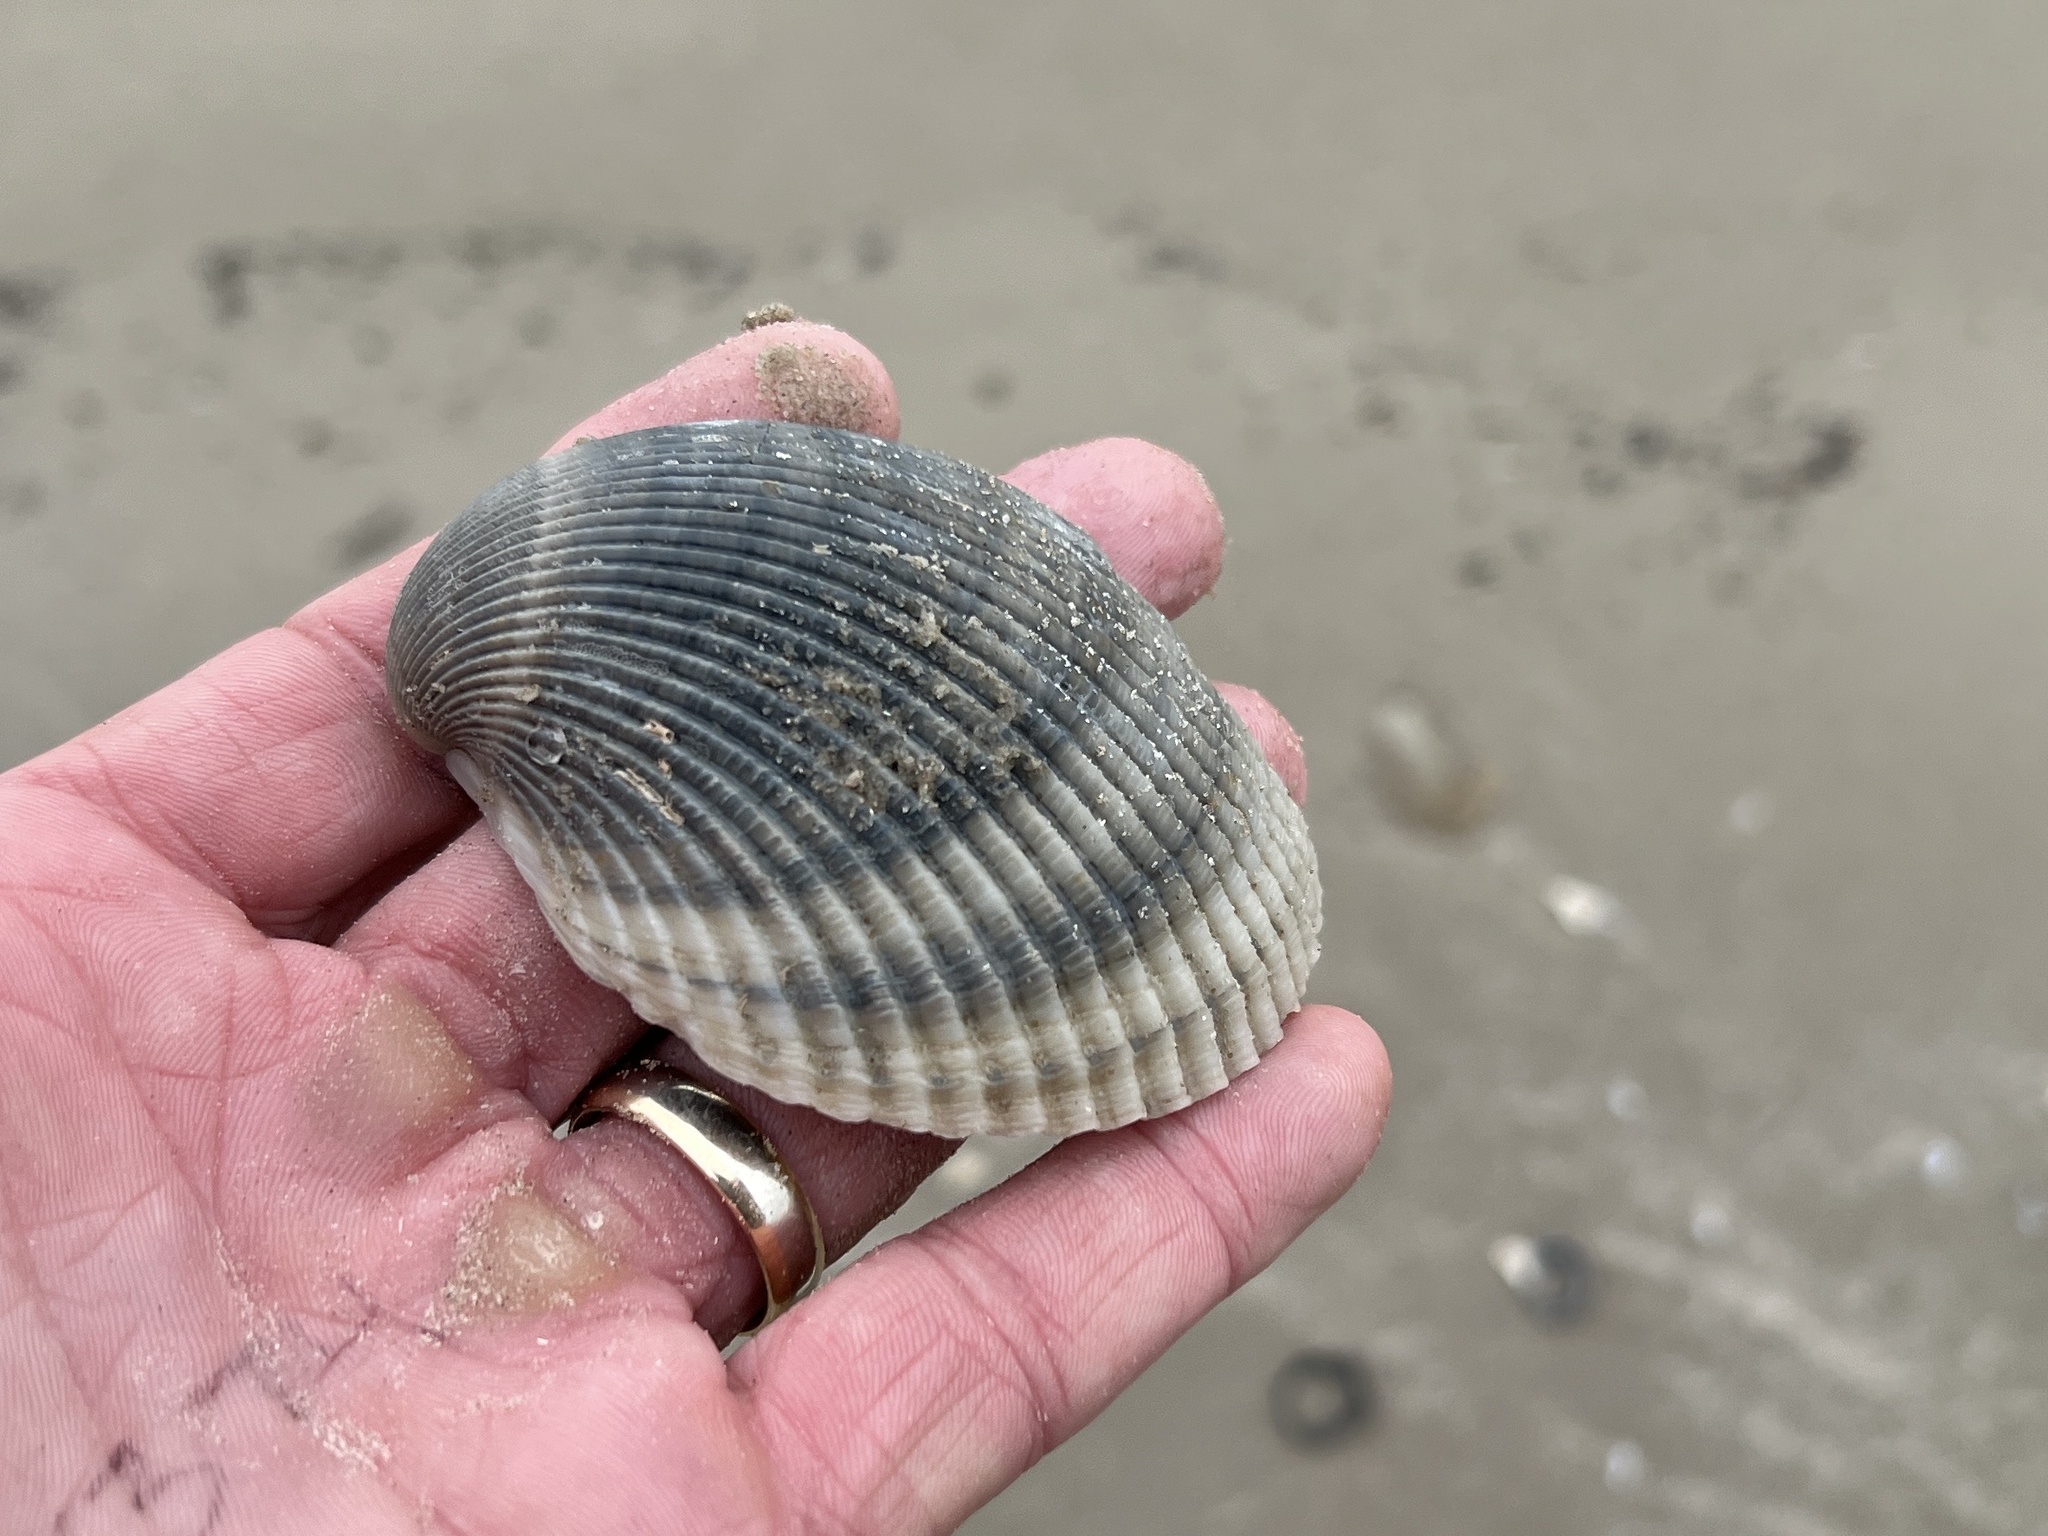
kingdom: Animalia
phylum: Mollusca
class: Bivalvia
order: Cardiida
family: Cardiidae
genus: Dinocardium
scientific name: Dinocardium robustum
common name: Atlantic giant cockle
